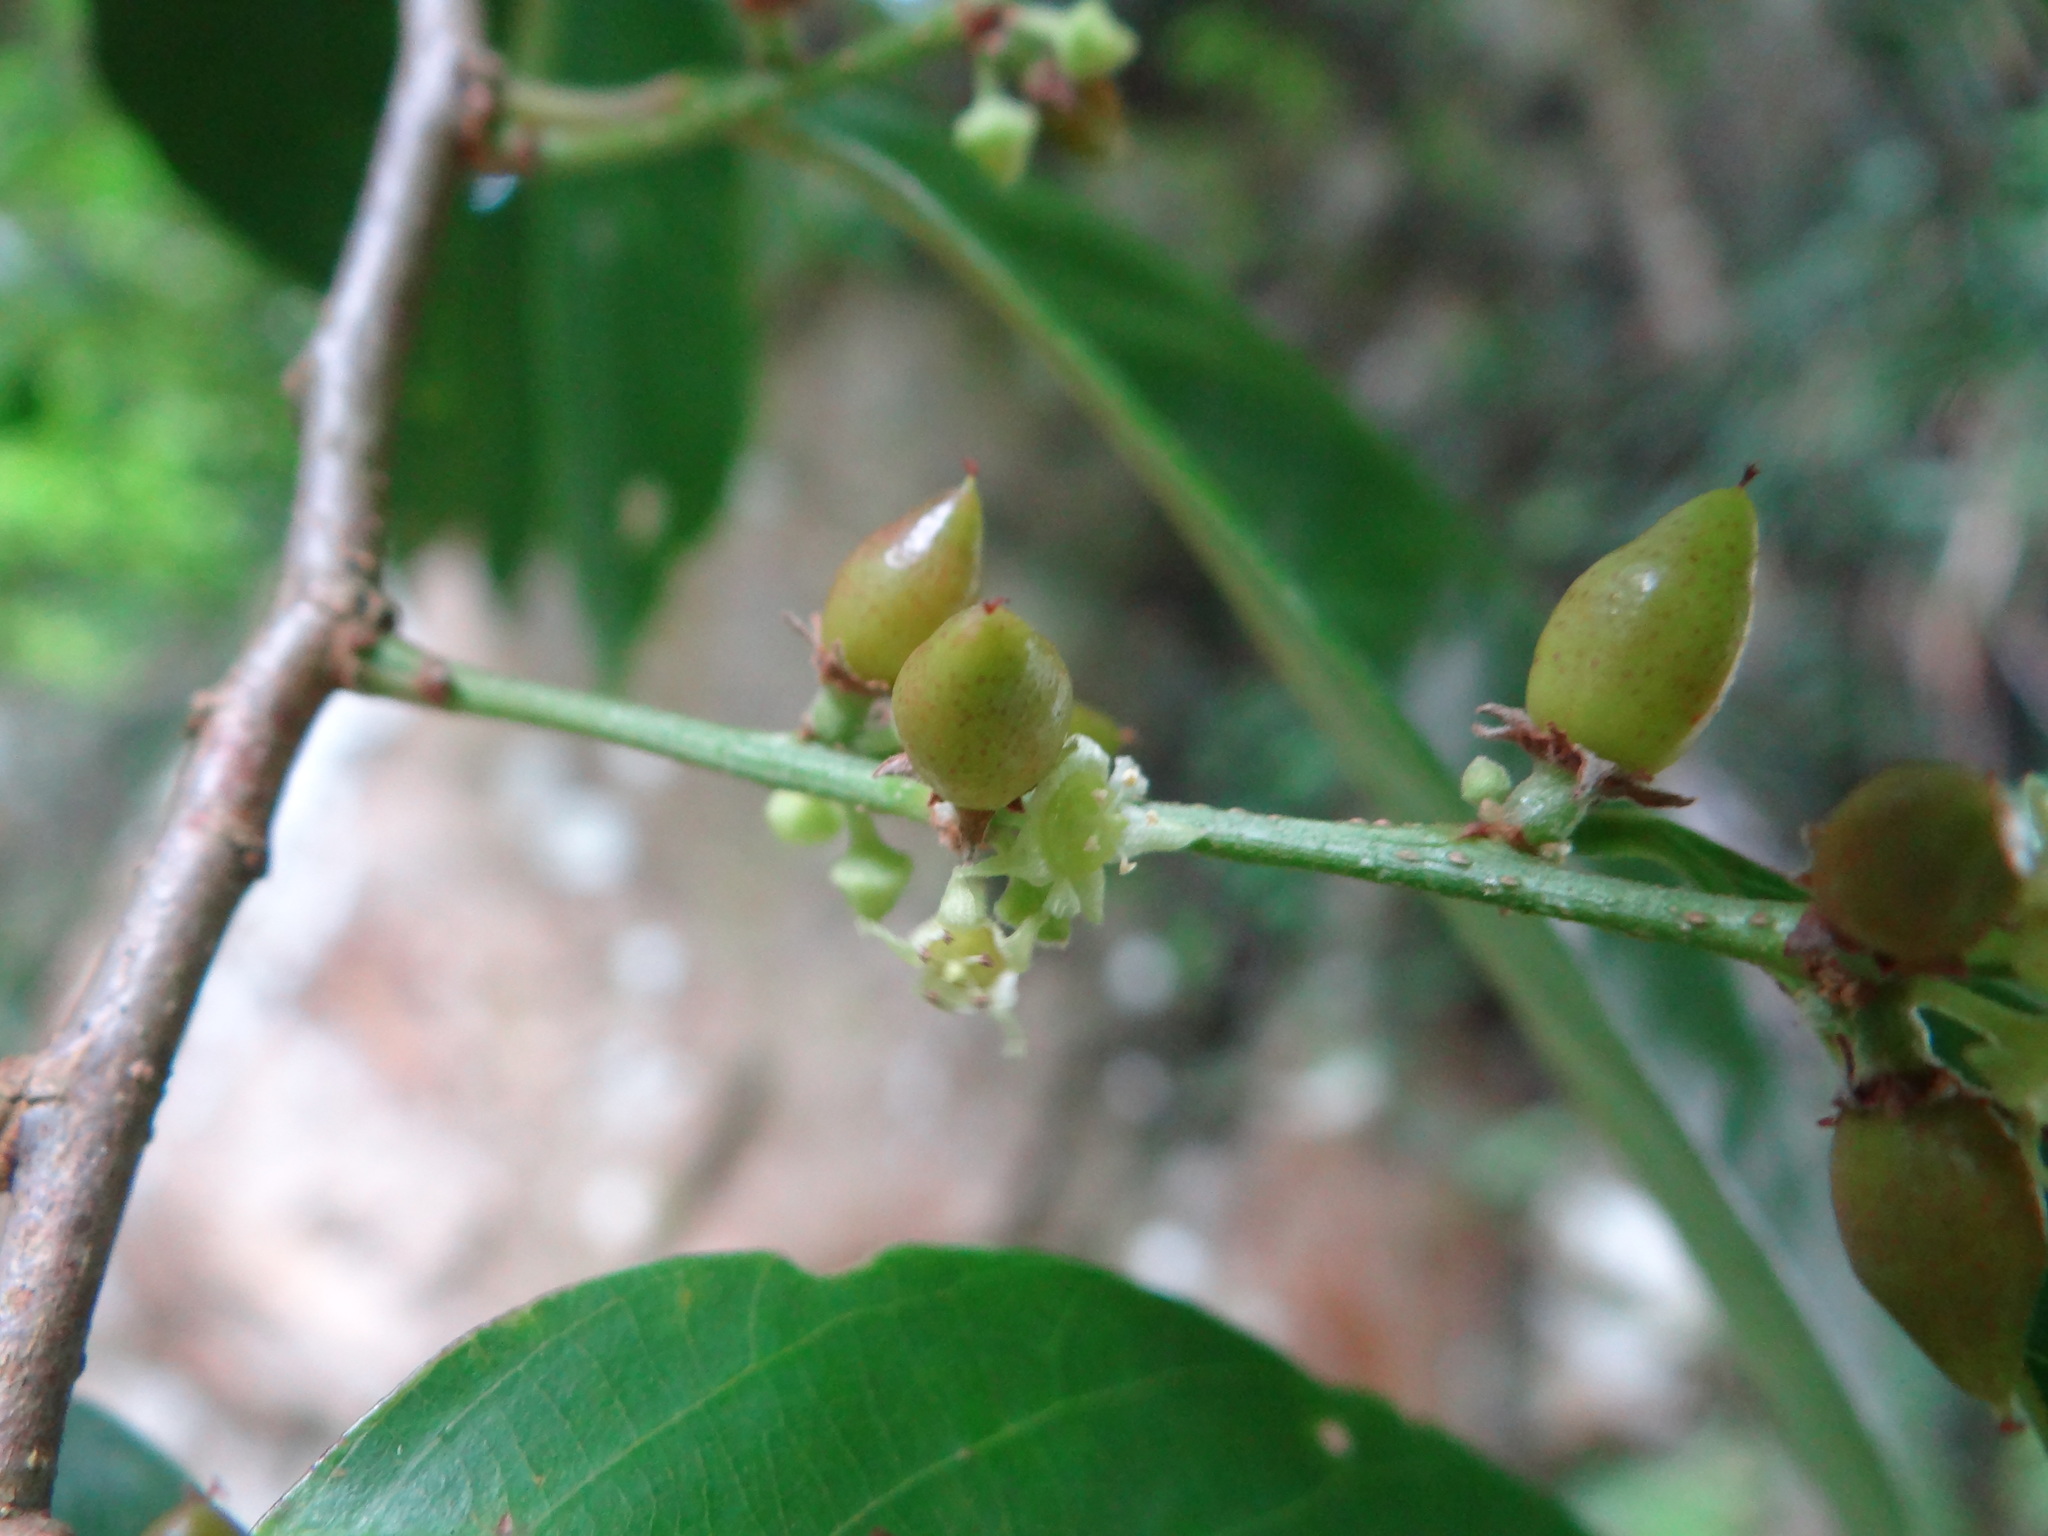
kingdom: Plantae
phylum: Tracheophyta
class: Magnoliopsida
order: Malpighiales
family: Phyllanthaceae
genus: Bridelia
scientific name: Bridelia balansae
